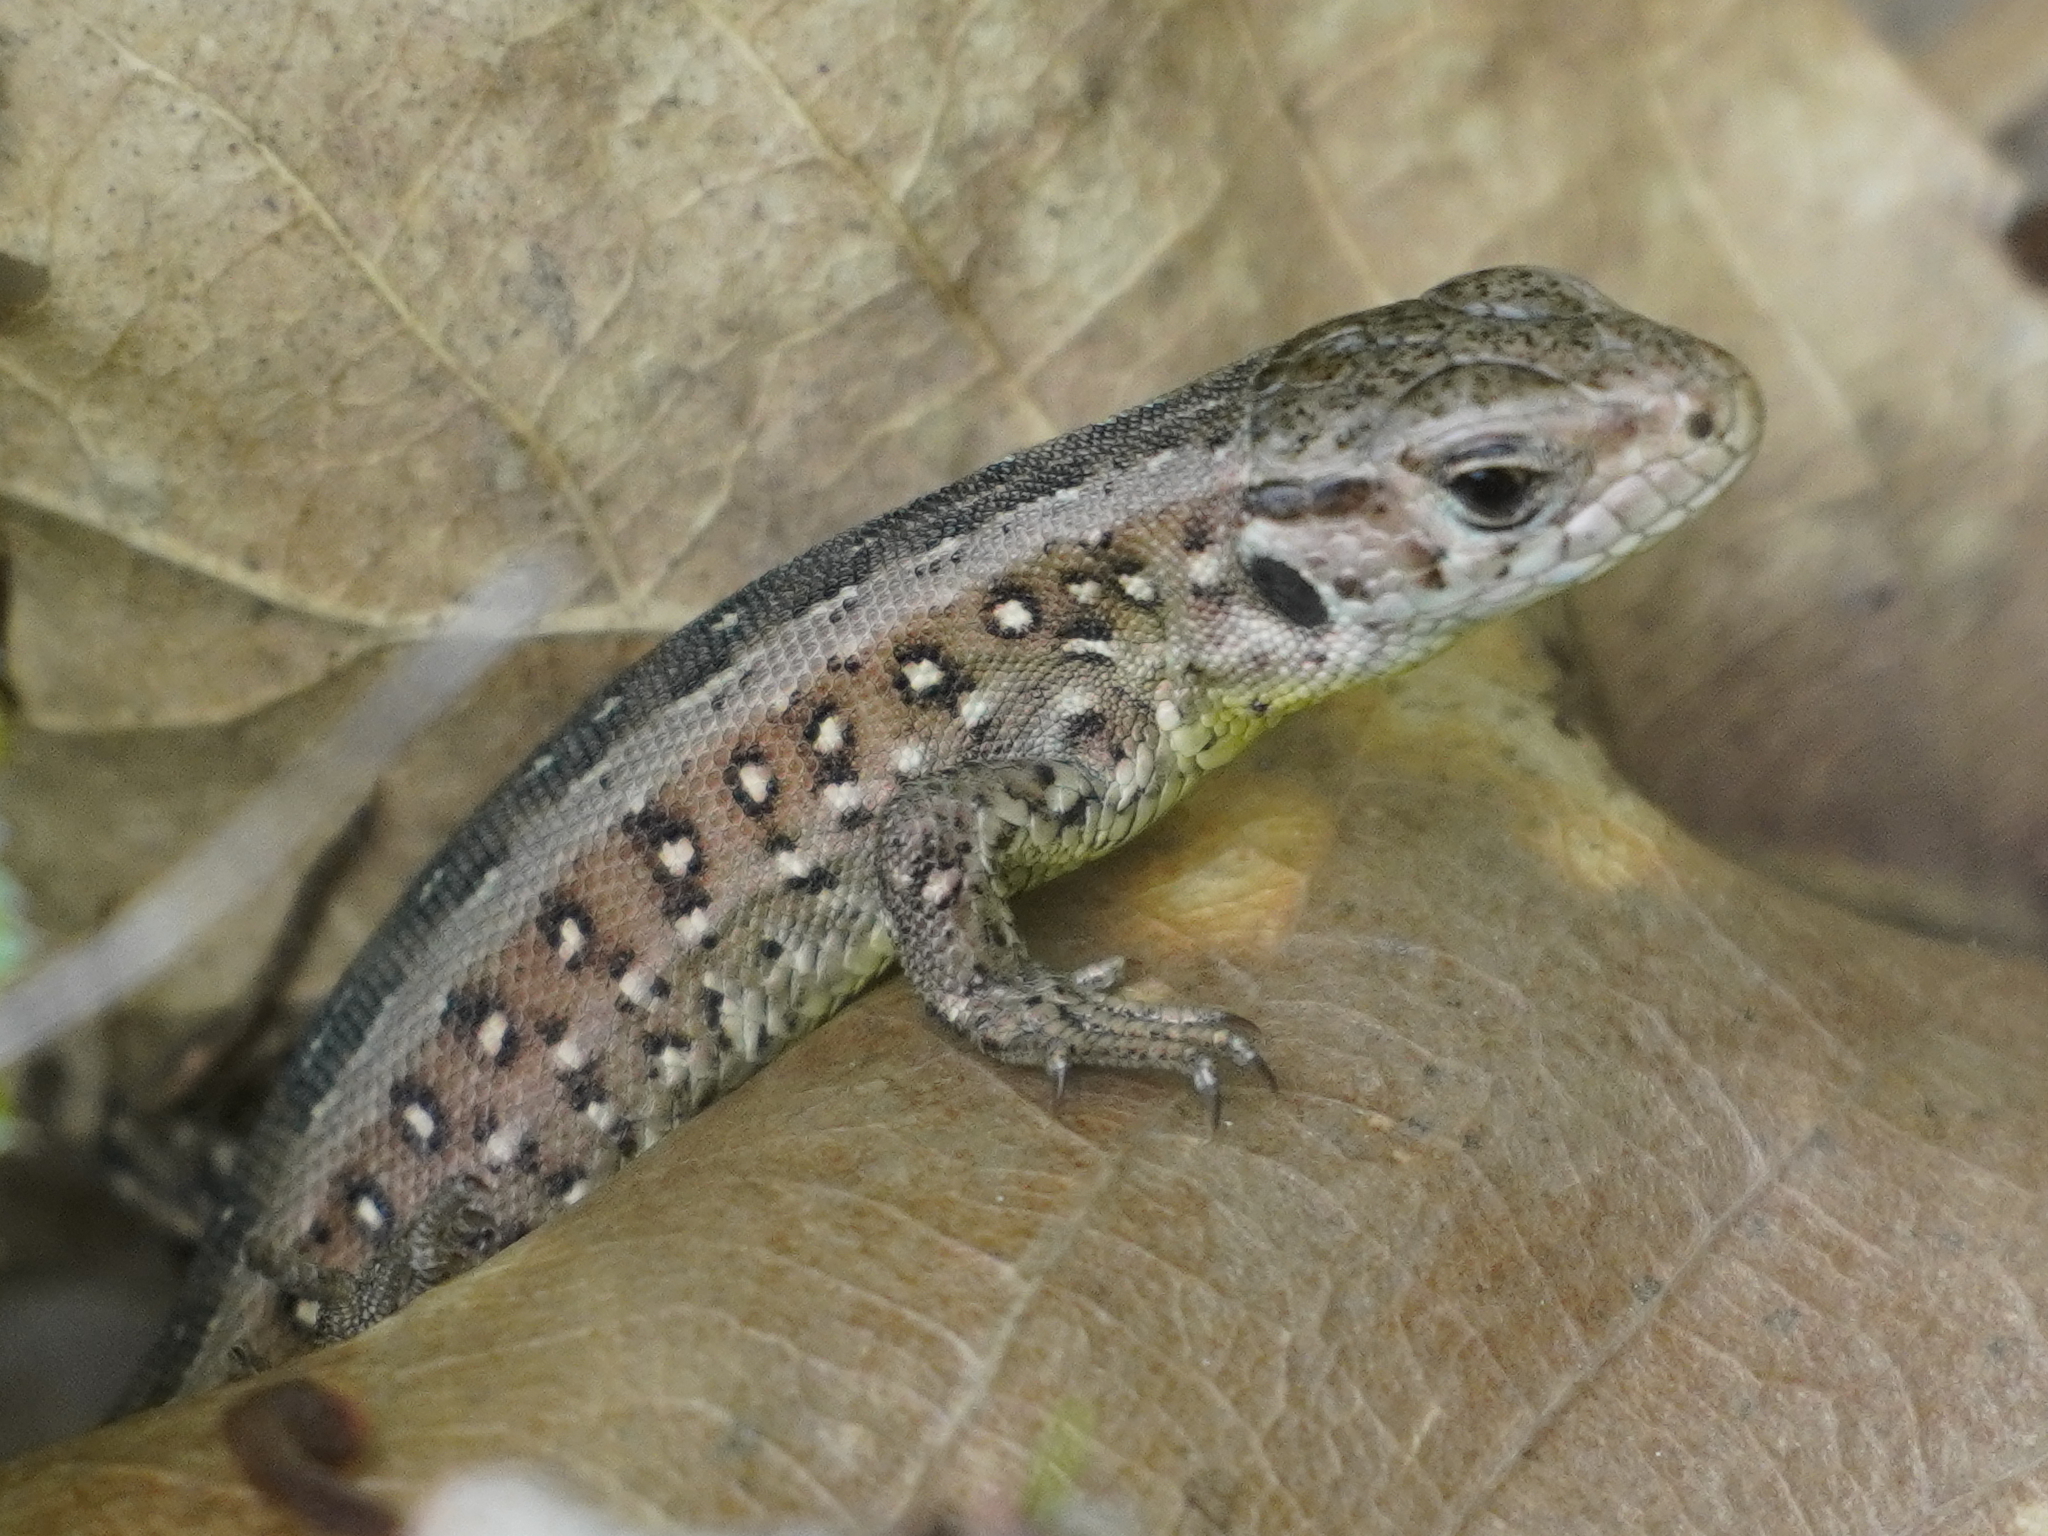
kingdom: Animalia
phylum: Chordata
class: Squamata
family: Lacertidae
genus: Lacerta
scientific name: Lacerta agilis
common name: Sand lizard
